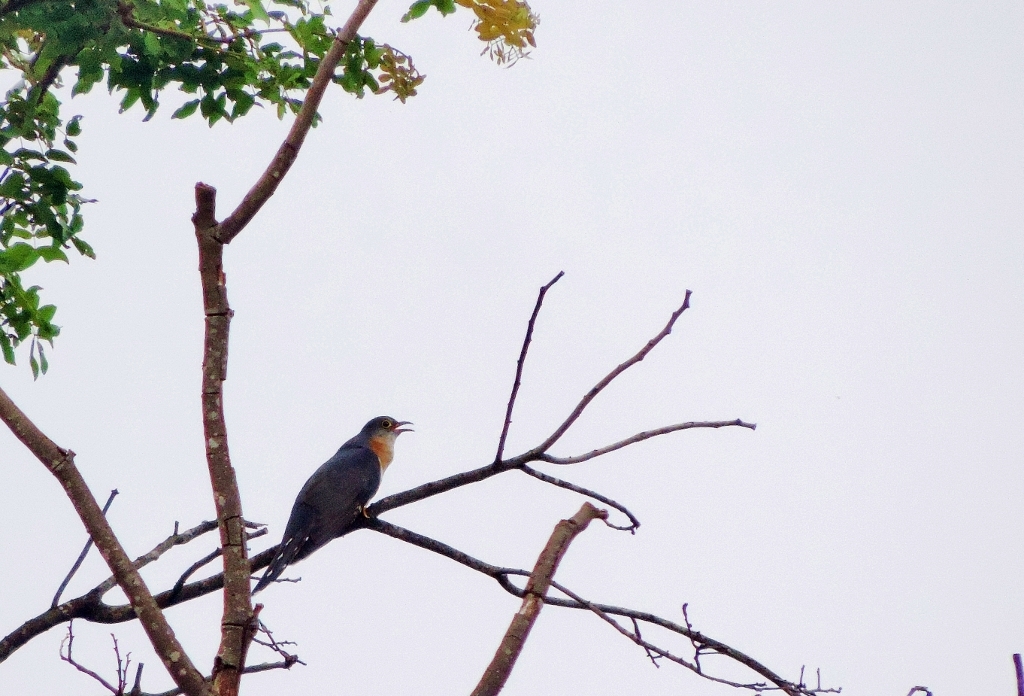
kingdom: Animalia
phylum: Chordata
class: Aves
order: Cuculiformes
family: Cuculidae
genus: Cuculus
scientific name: Cuculus solitarius
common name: Red-chested cuckoo
